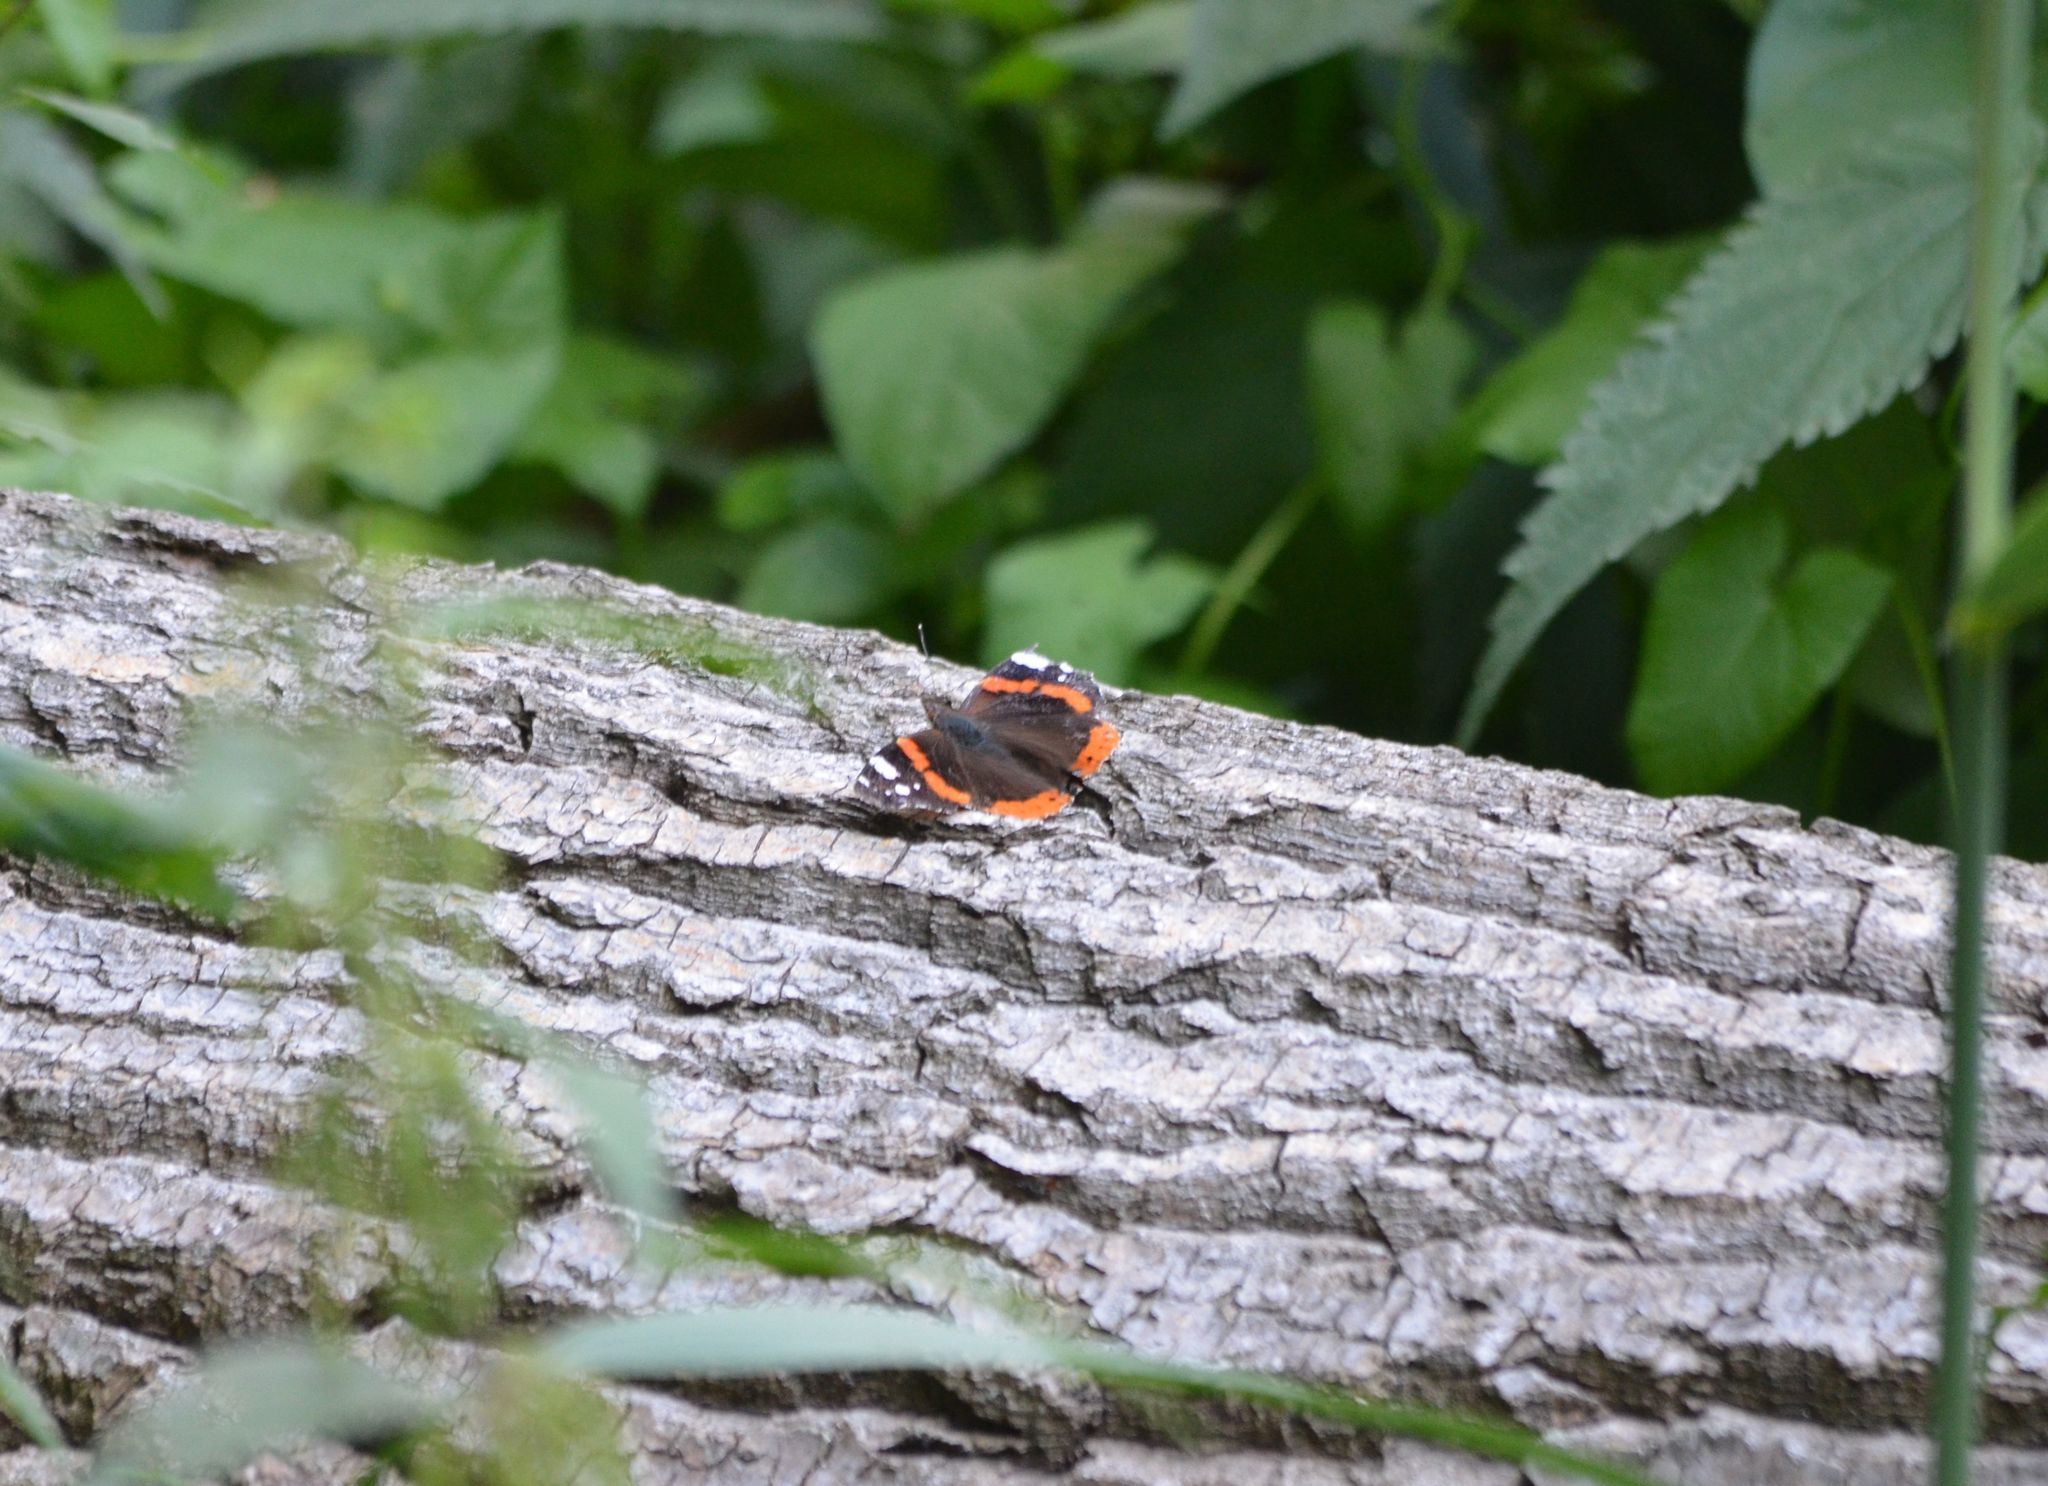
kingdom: Animalia
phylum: Arthropoda
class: Insecta
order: Lepidoptera
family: Nymphalidae
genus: Vanessa
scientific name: Vanessa atalanta
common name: Red admiral
